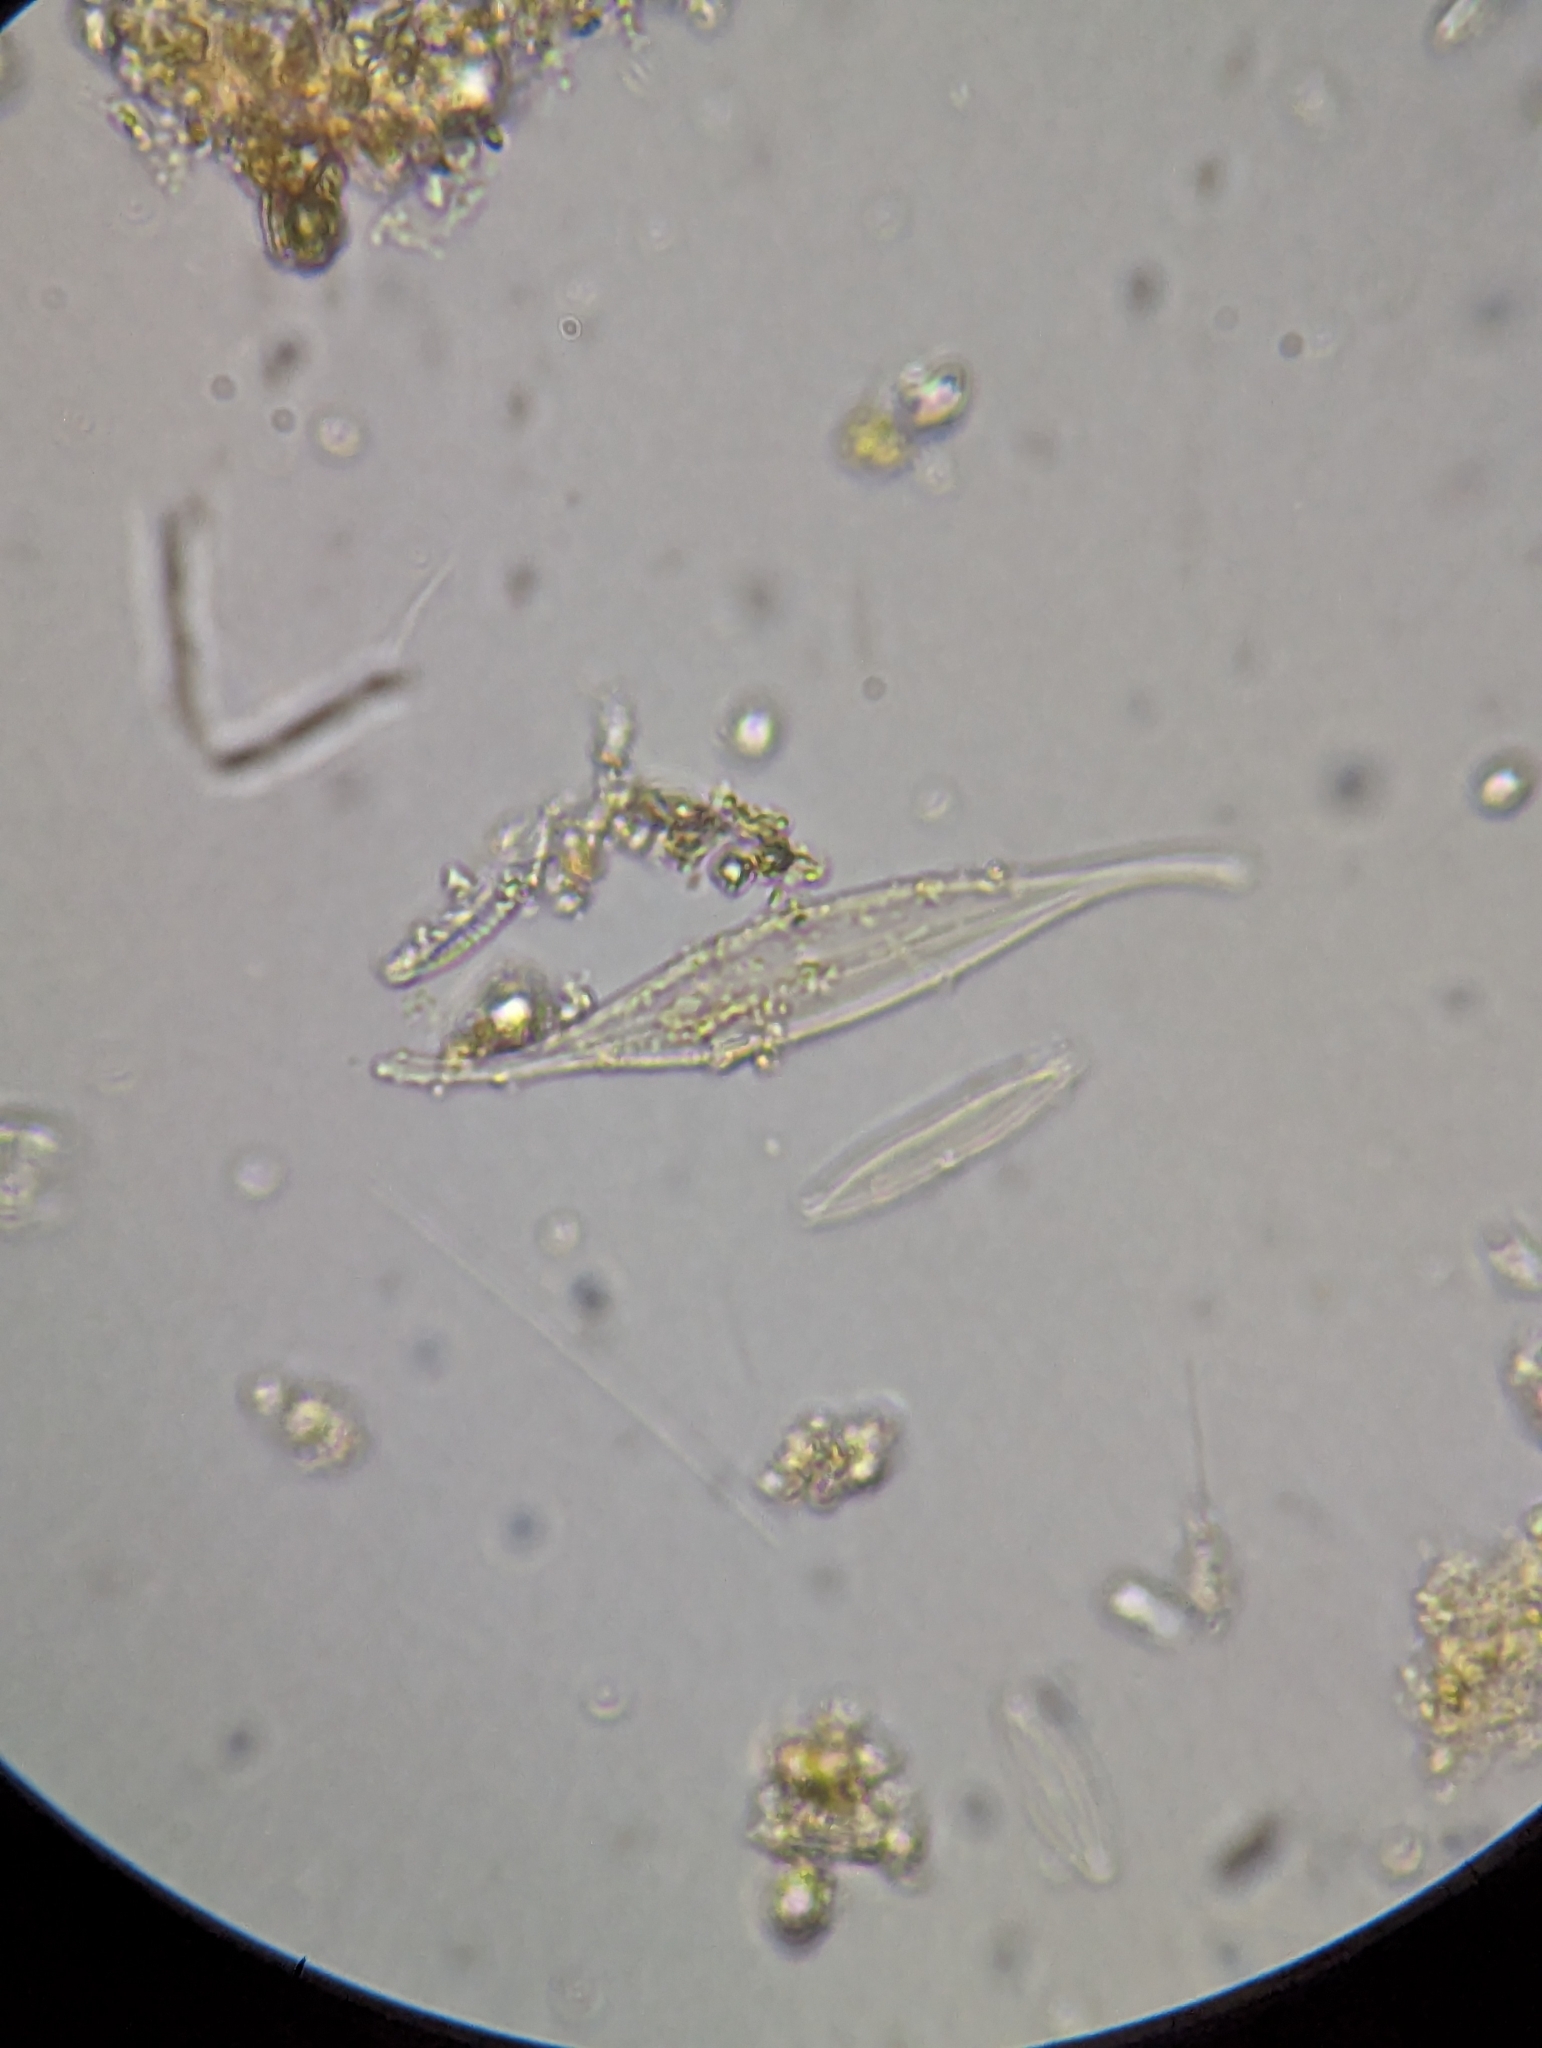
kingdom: Chromista
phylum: Ochrophyta
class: Bacillariophyceae
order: Naviculales
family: Pleurosigmataceae
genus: Gyrosigma
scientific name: Gyrosigma fascicola
